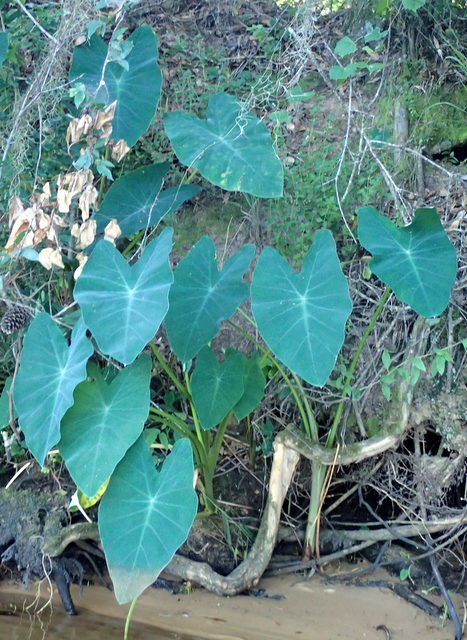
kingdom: Plantae
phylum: Tracheophyta
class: Liliopsida
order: Alismatales
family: Araceae
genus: Colocasia
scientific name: Colocasia esculenta
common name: Taro
